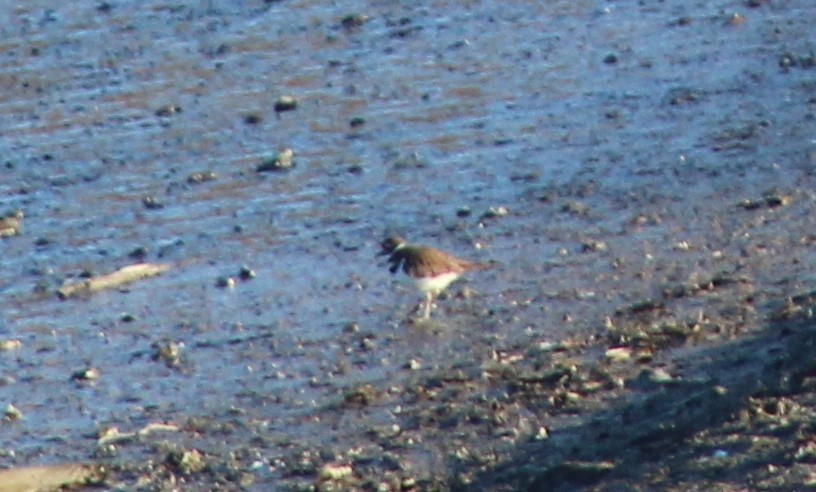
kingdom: Animalia
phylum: Chordata
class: Aves
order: Charadriiformes
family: Charadriidae
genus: Charadrius
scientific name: Charadrius vociferus
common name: Killdeer
